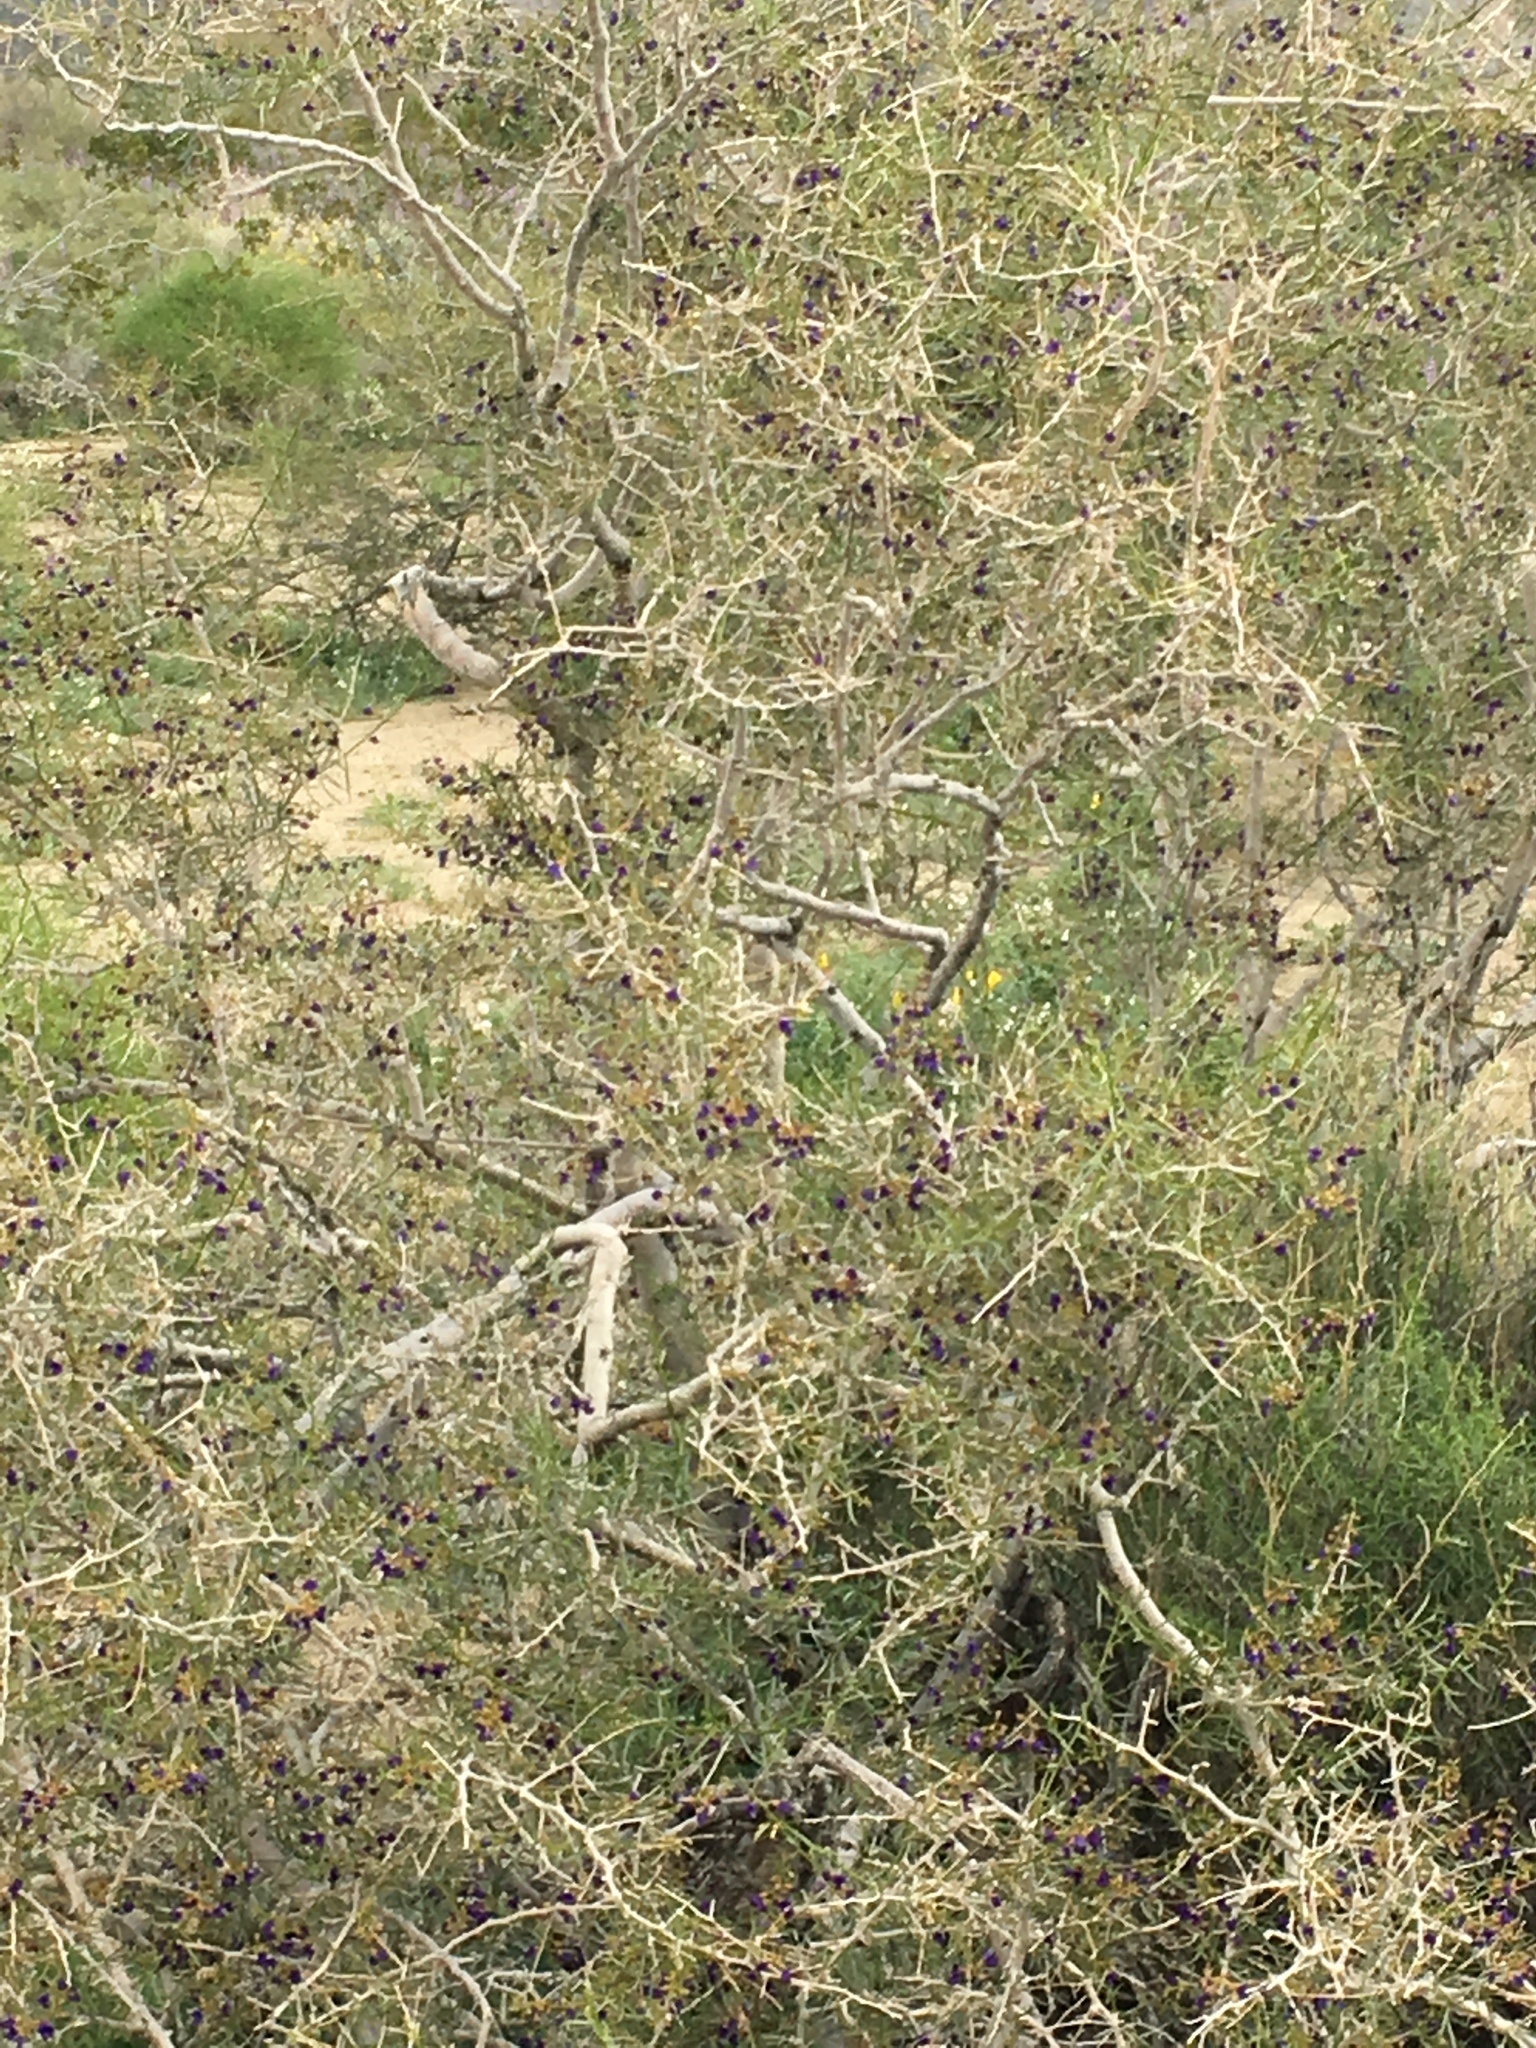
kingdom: Plantae
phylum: Tracheophyta
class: Magnoliopsida
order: Fabales
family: Fabaceae
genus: Psorothamnus
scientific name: Psorothamnus schottii
